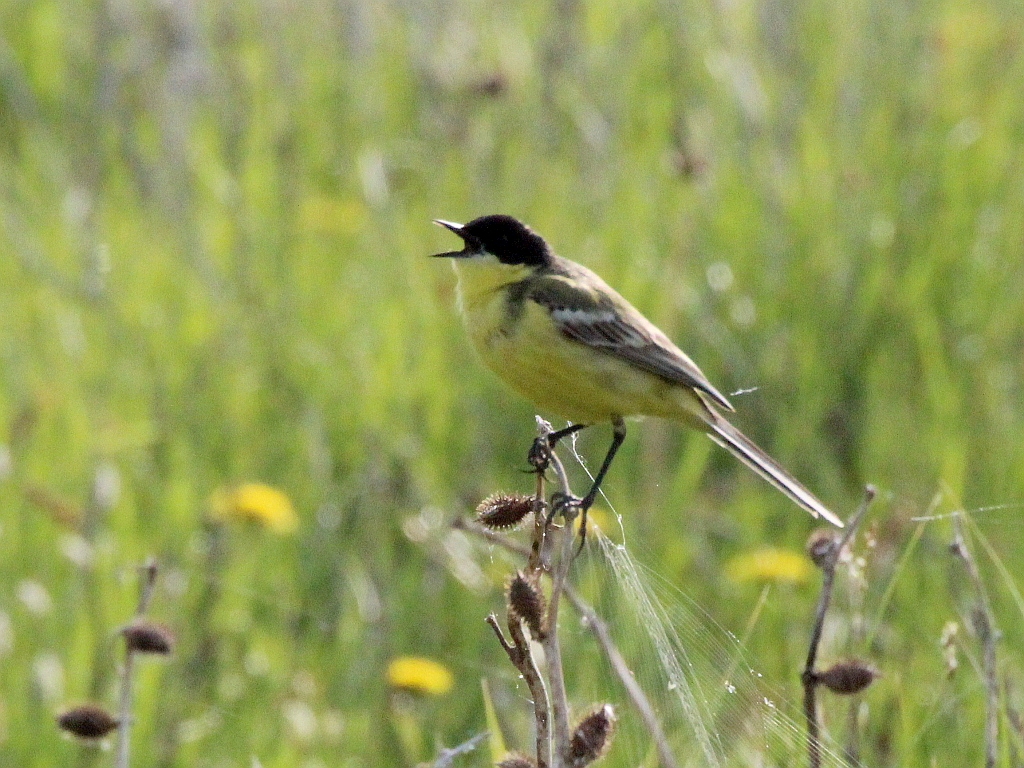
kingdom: Animalia
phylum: Chordata
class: Aves
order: Passeriformes
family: Motacillidae
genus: Motacilla
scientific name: Motacilla flava
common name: Western yellow wagtail
